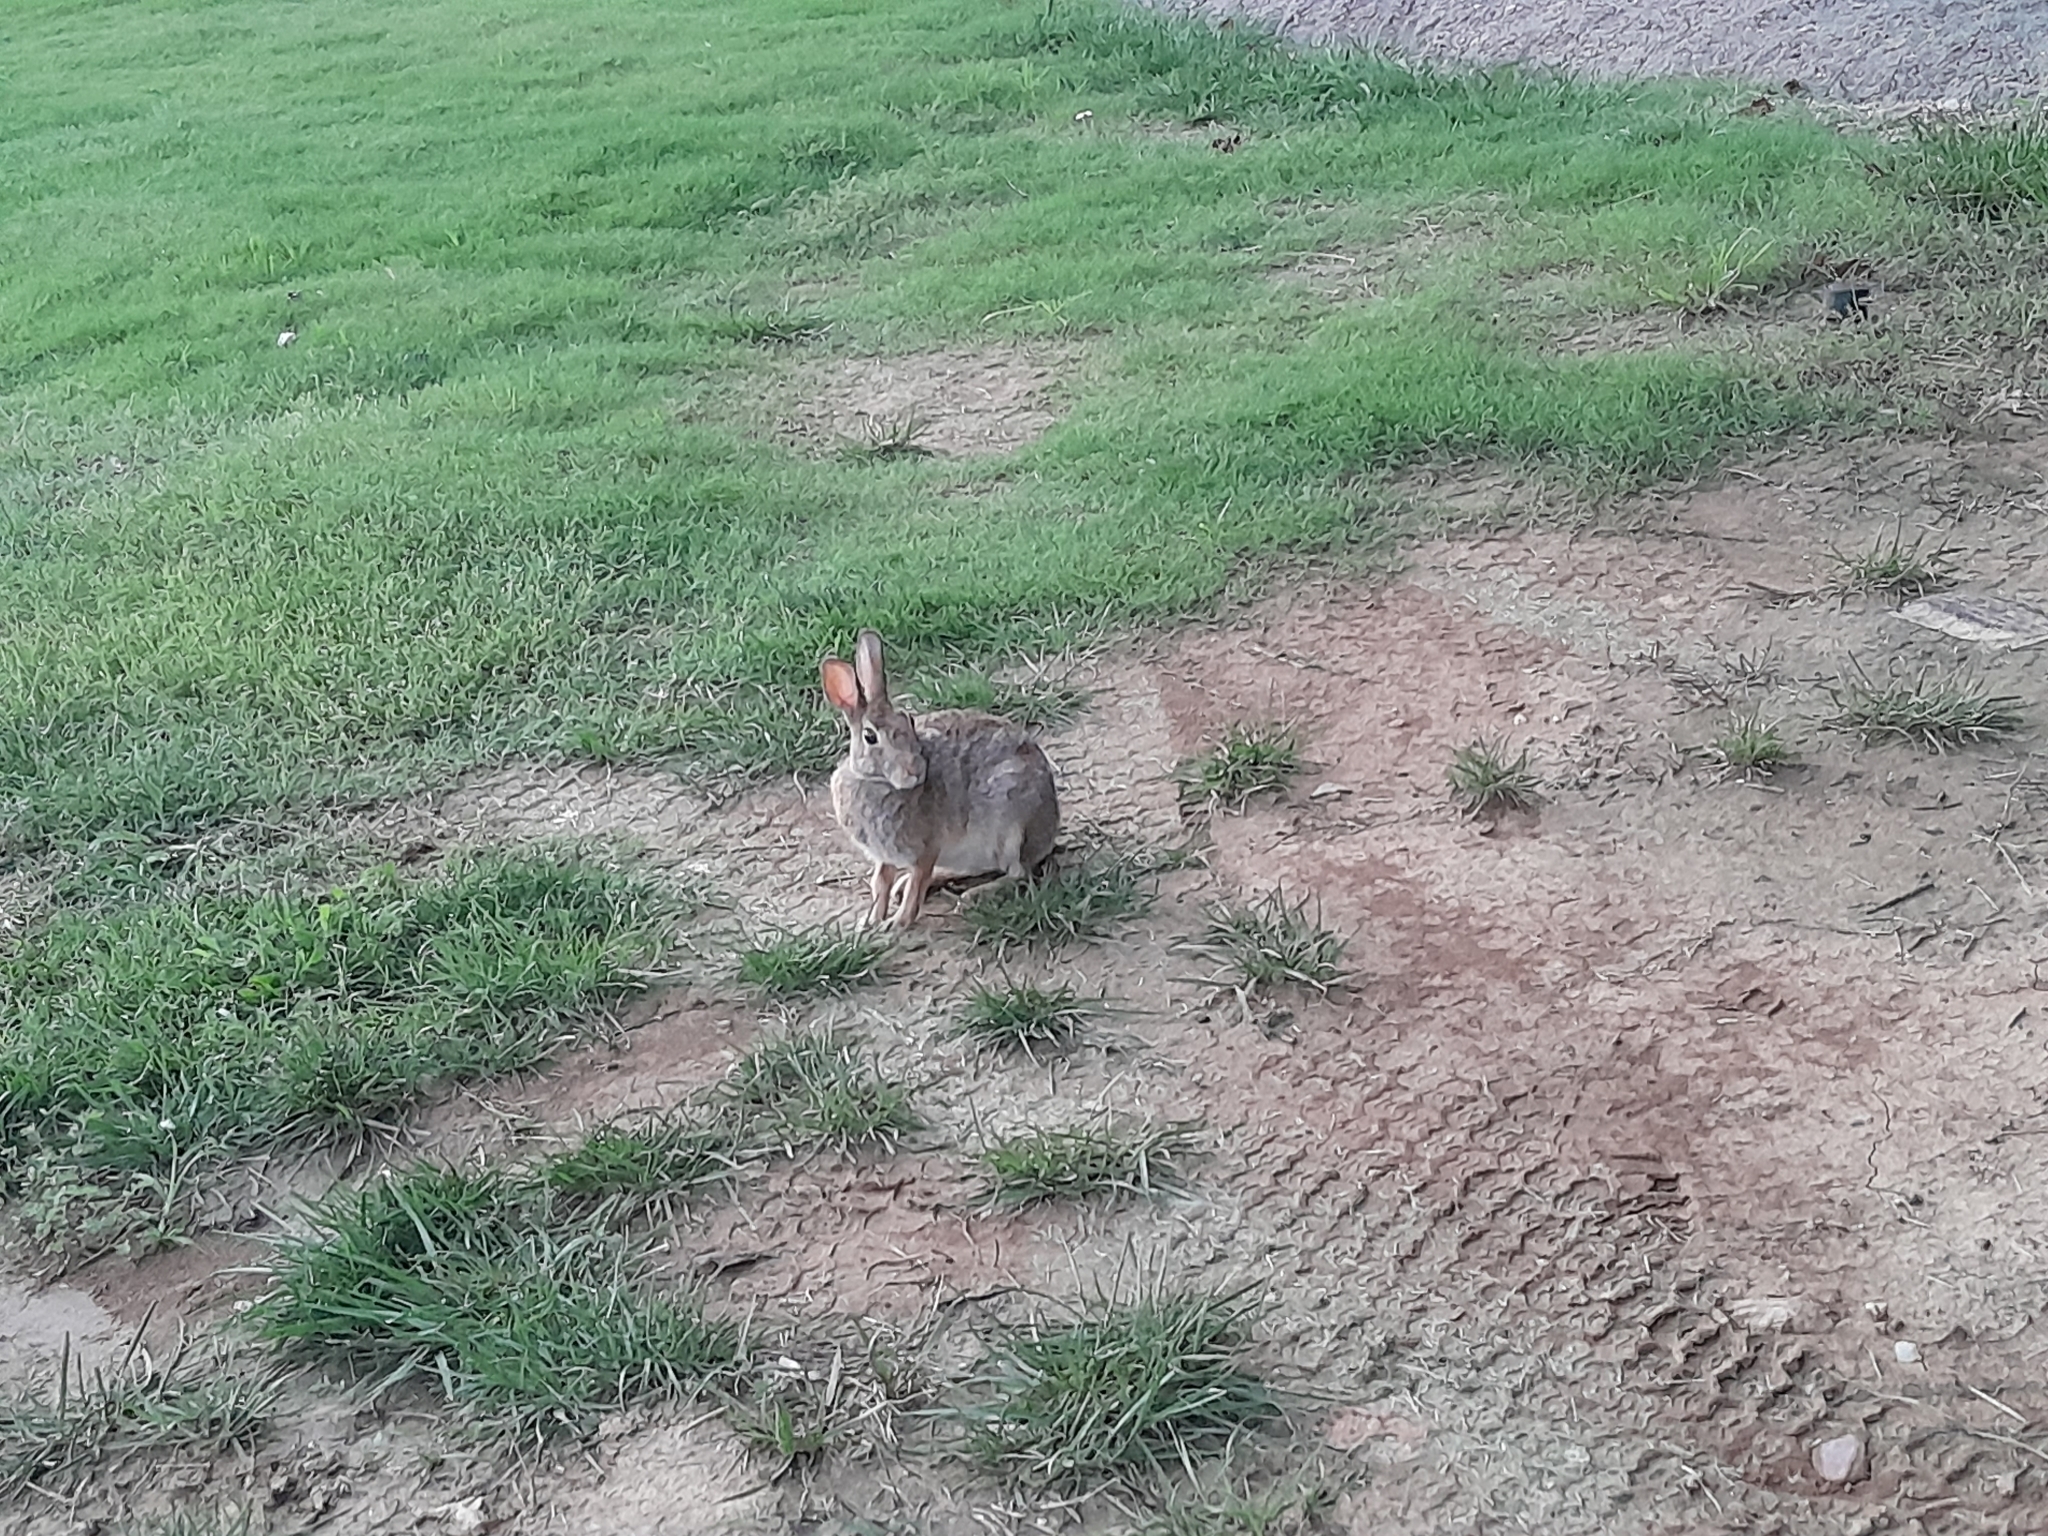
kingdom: Animalia
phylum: Chordata
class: Mammalia
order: Lagomorpha
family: Leporidae
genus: Sylvilagus
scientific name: Sylvilagus floridanus
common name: Eastern cottontail
